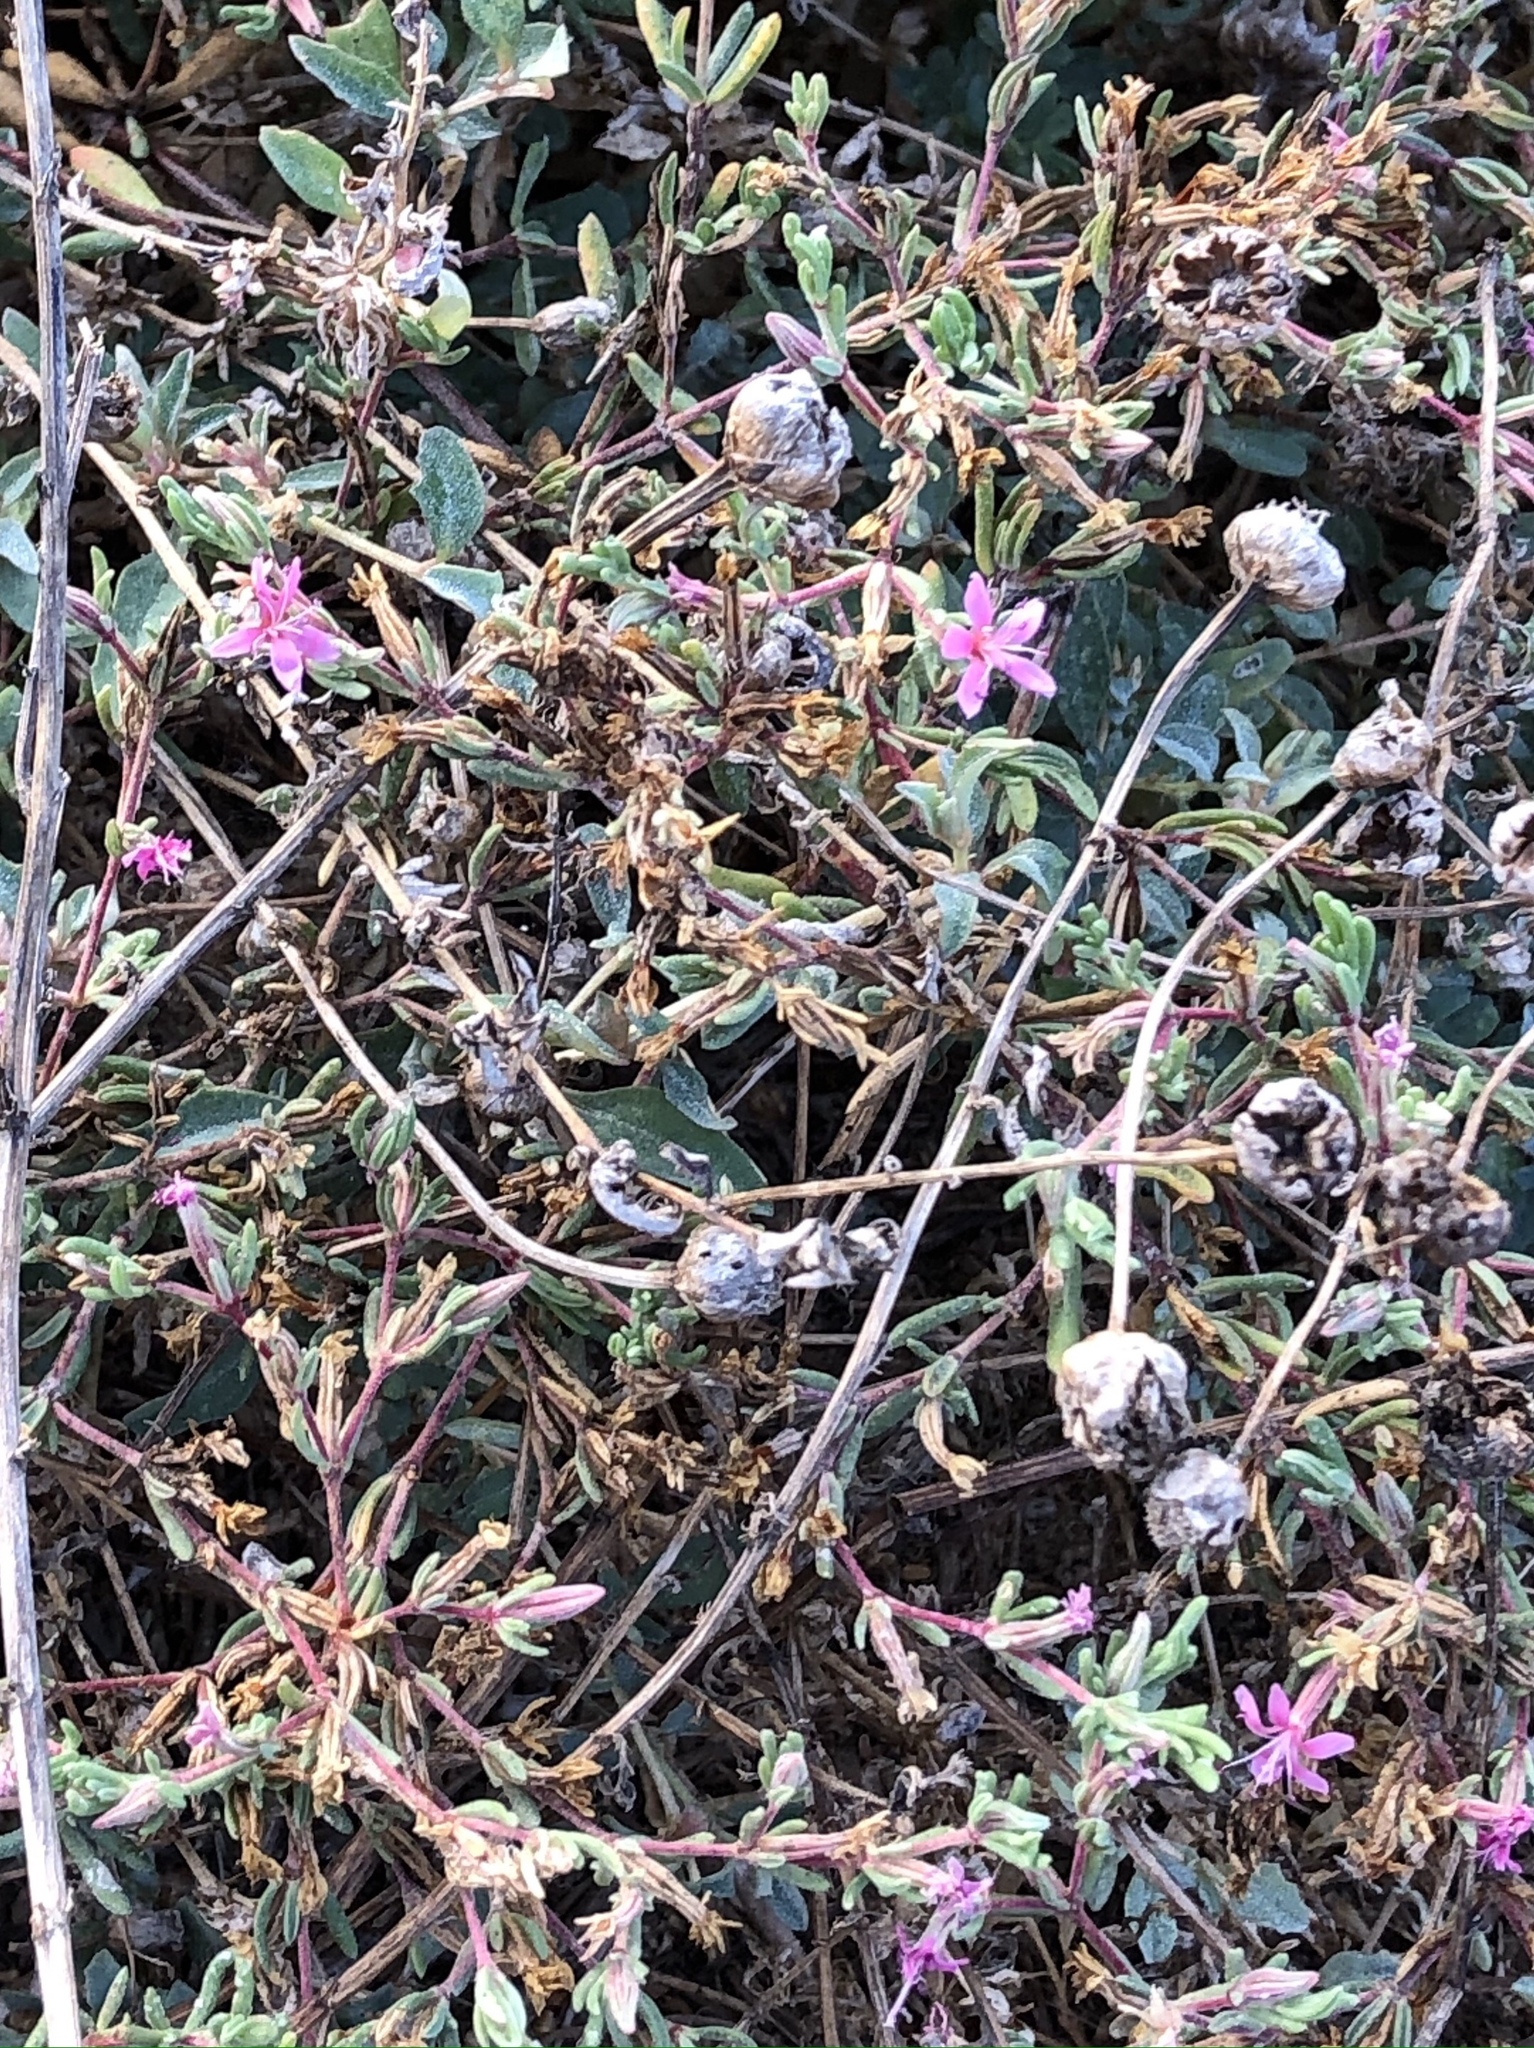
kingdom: Plantae
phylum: Tracheophyta
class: Magnoliopsida
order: Caryophyllales
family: Frankeniaceae
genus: Frankenia
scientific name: Frankenia salina
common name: Alkali seaheath
